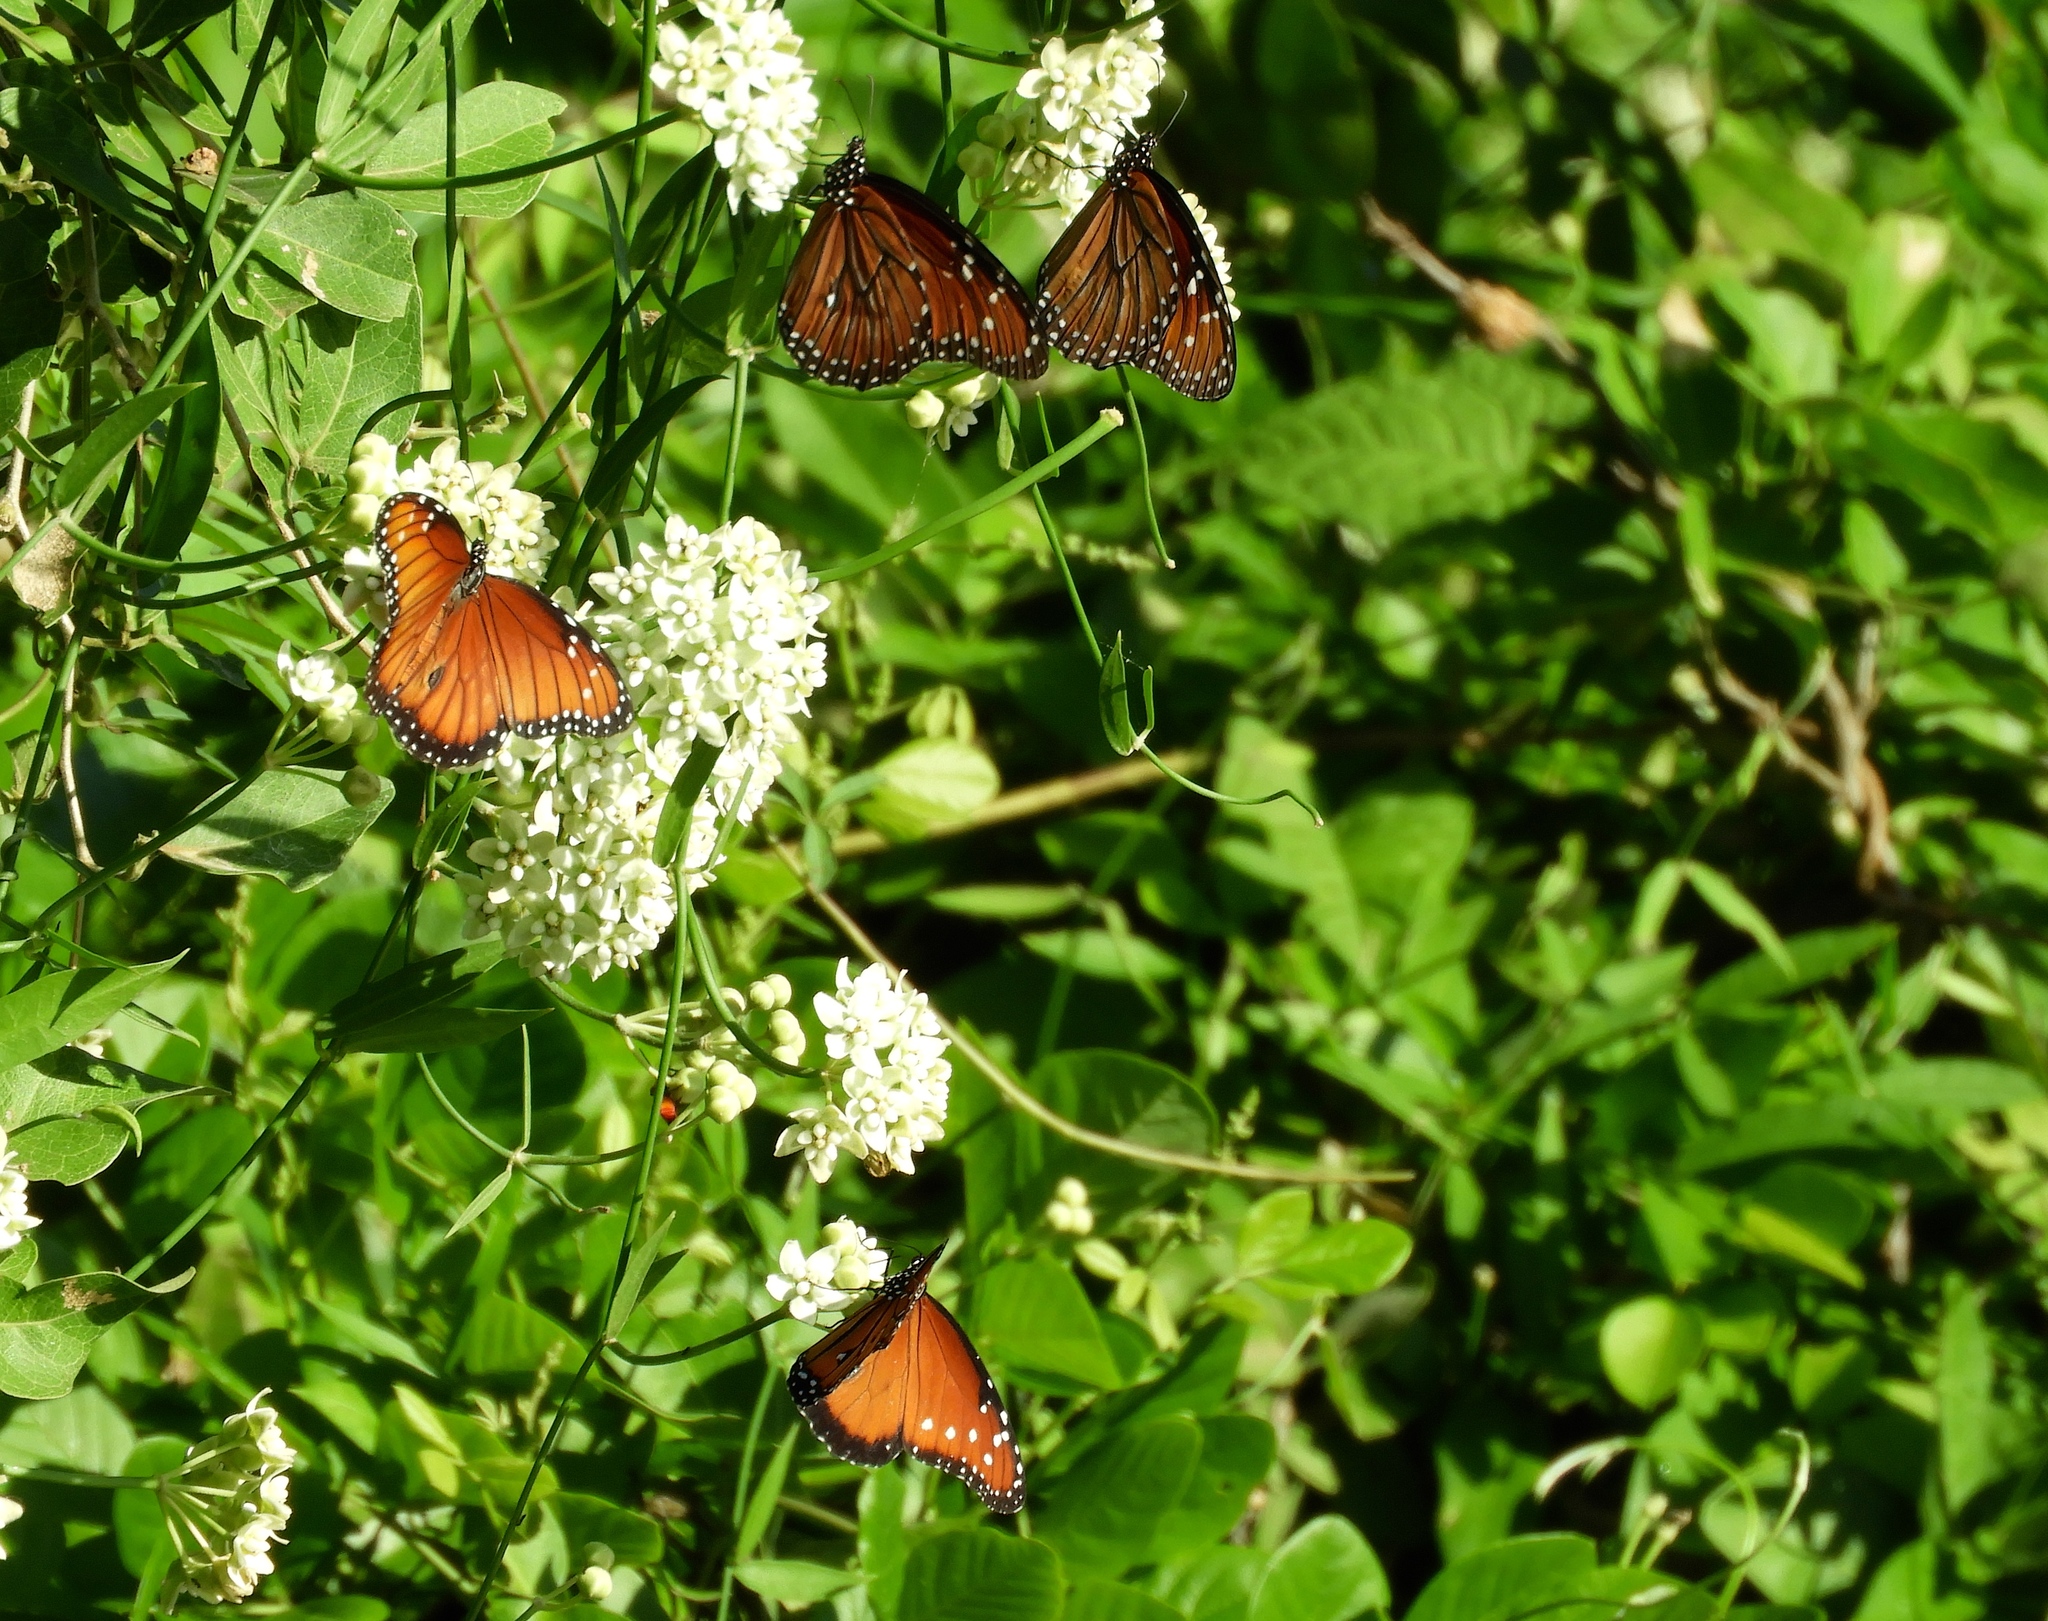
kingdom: Animalia
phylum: Arthropoda
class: Insecta
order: Lepidoptera
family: Nymphalidae
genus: Danaus
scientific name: Danaus gilippus
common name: Queen
